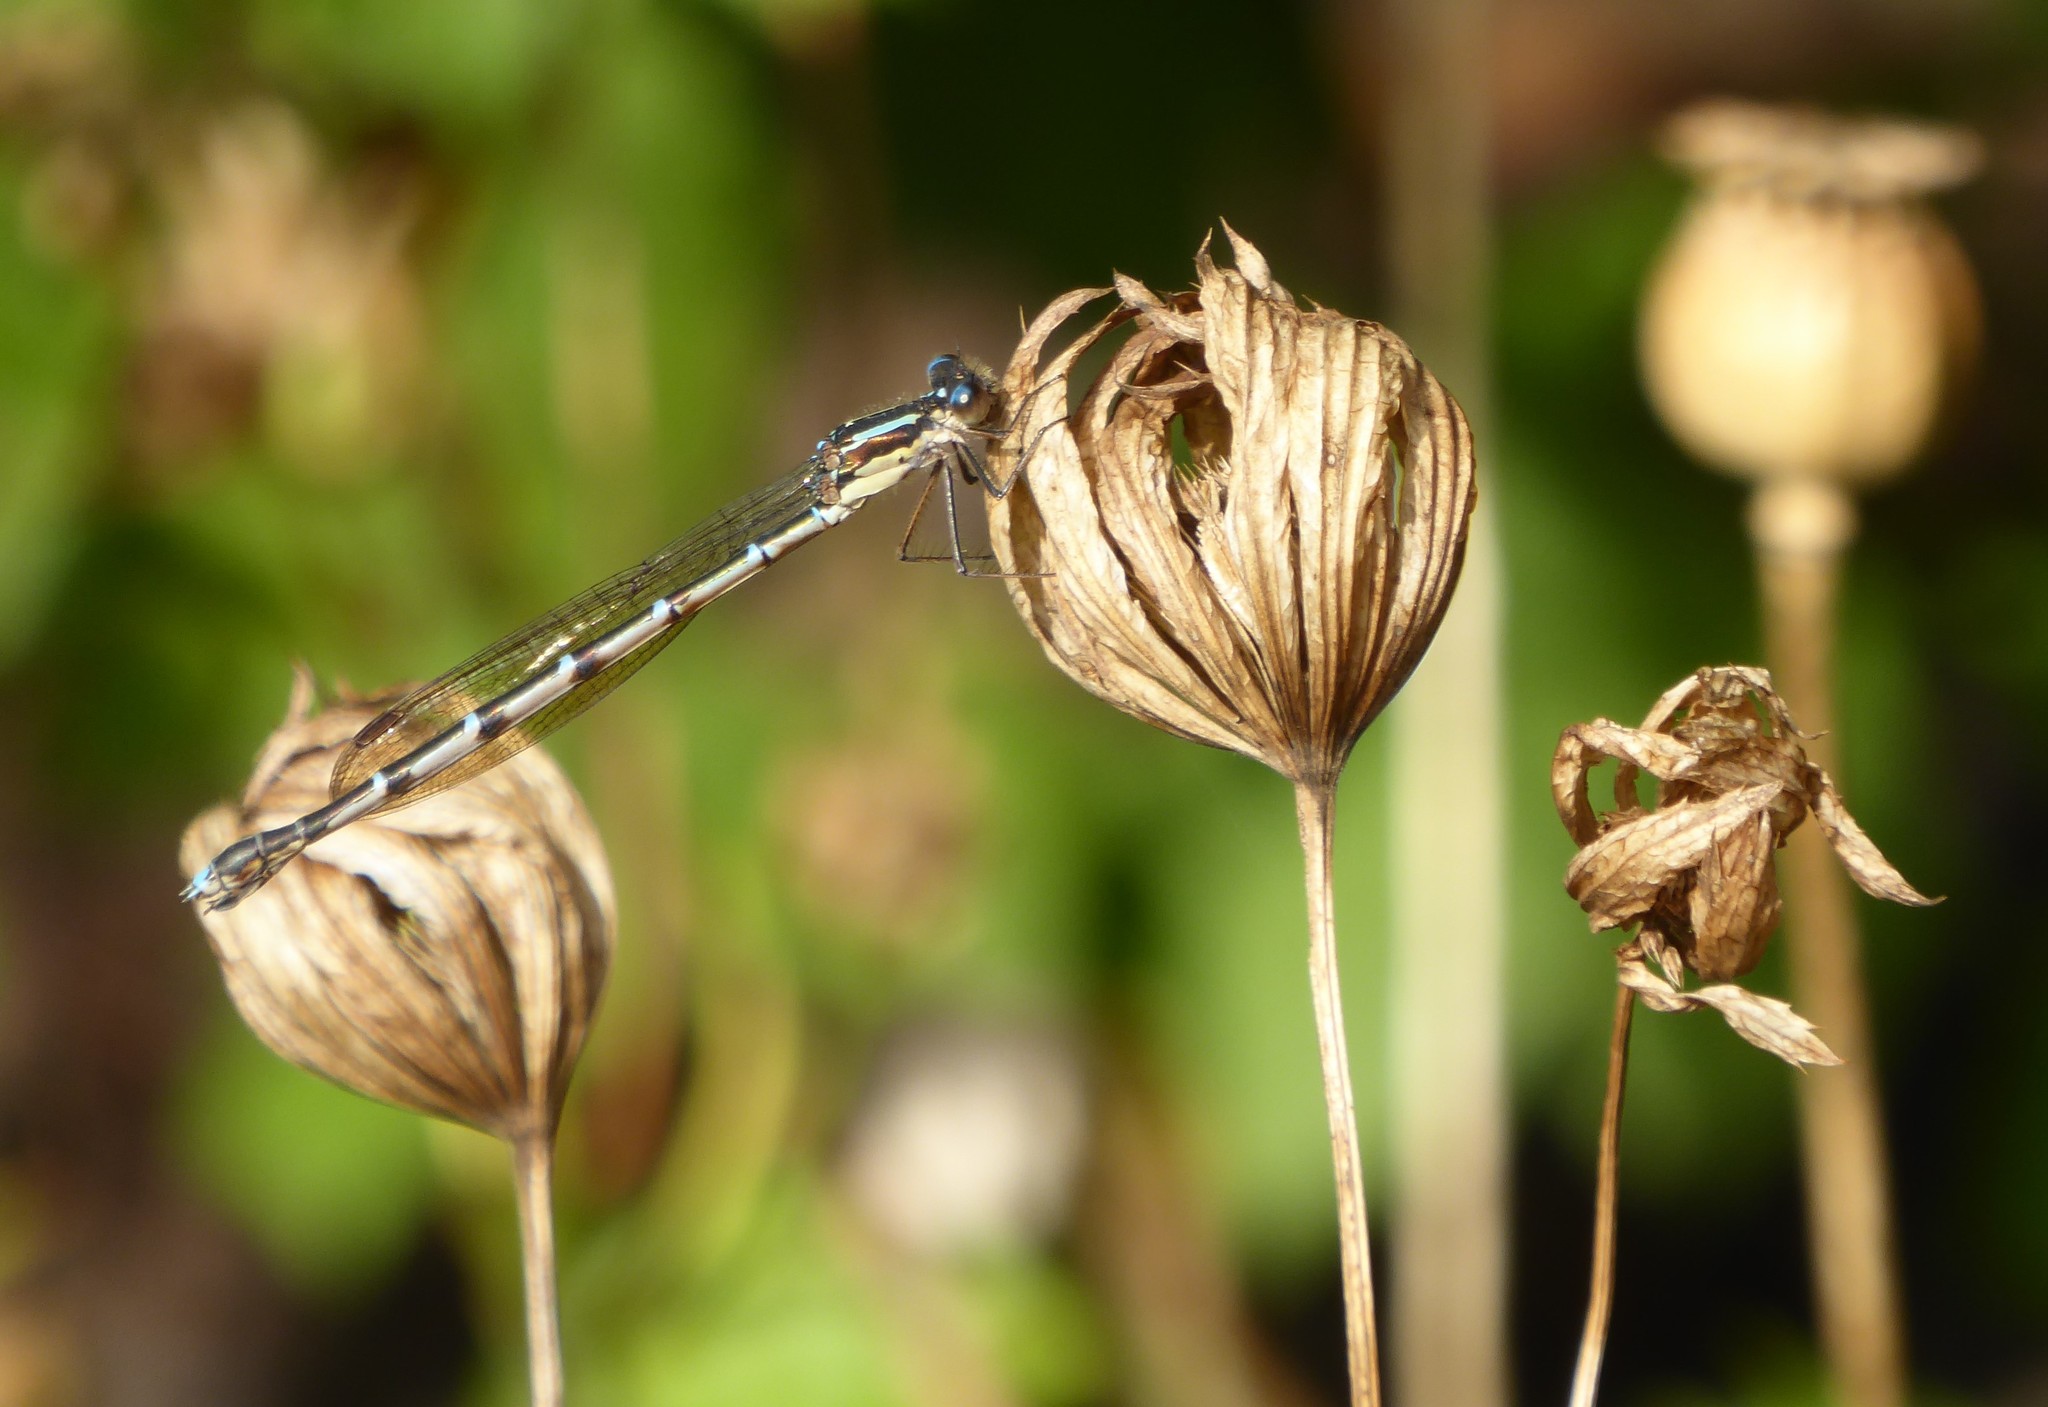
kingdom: Animalia
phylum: Arthropoda
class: Insecta
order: Odonata
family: Lestidae
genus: Austrolestes
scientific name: Austrolestes colensonis
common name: Blue damselfly
